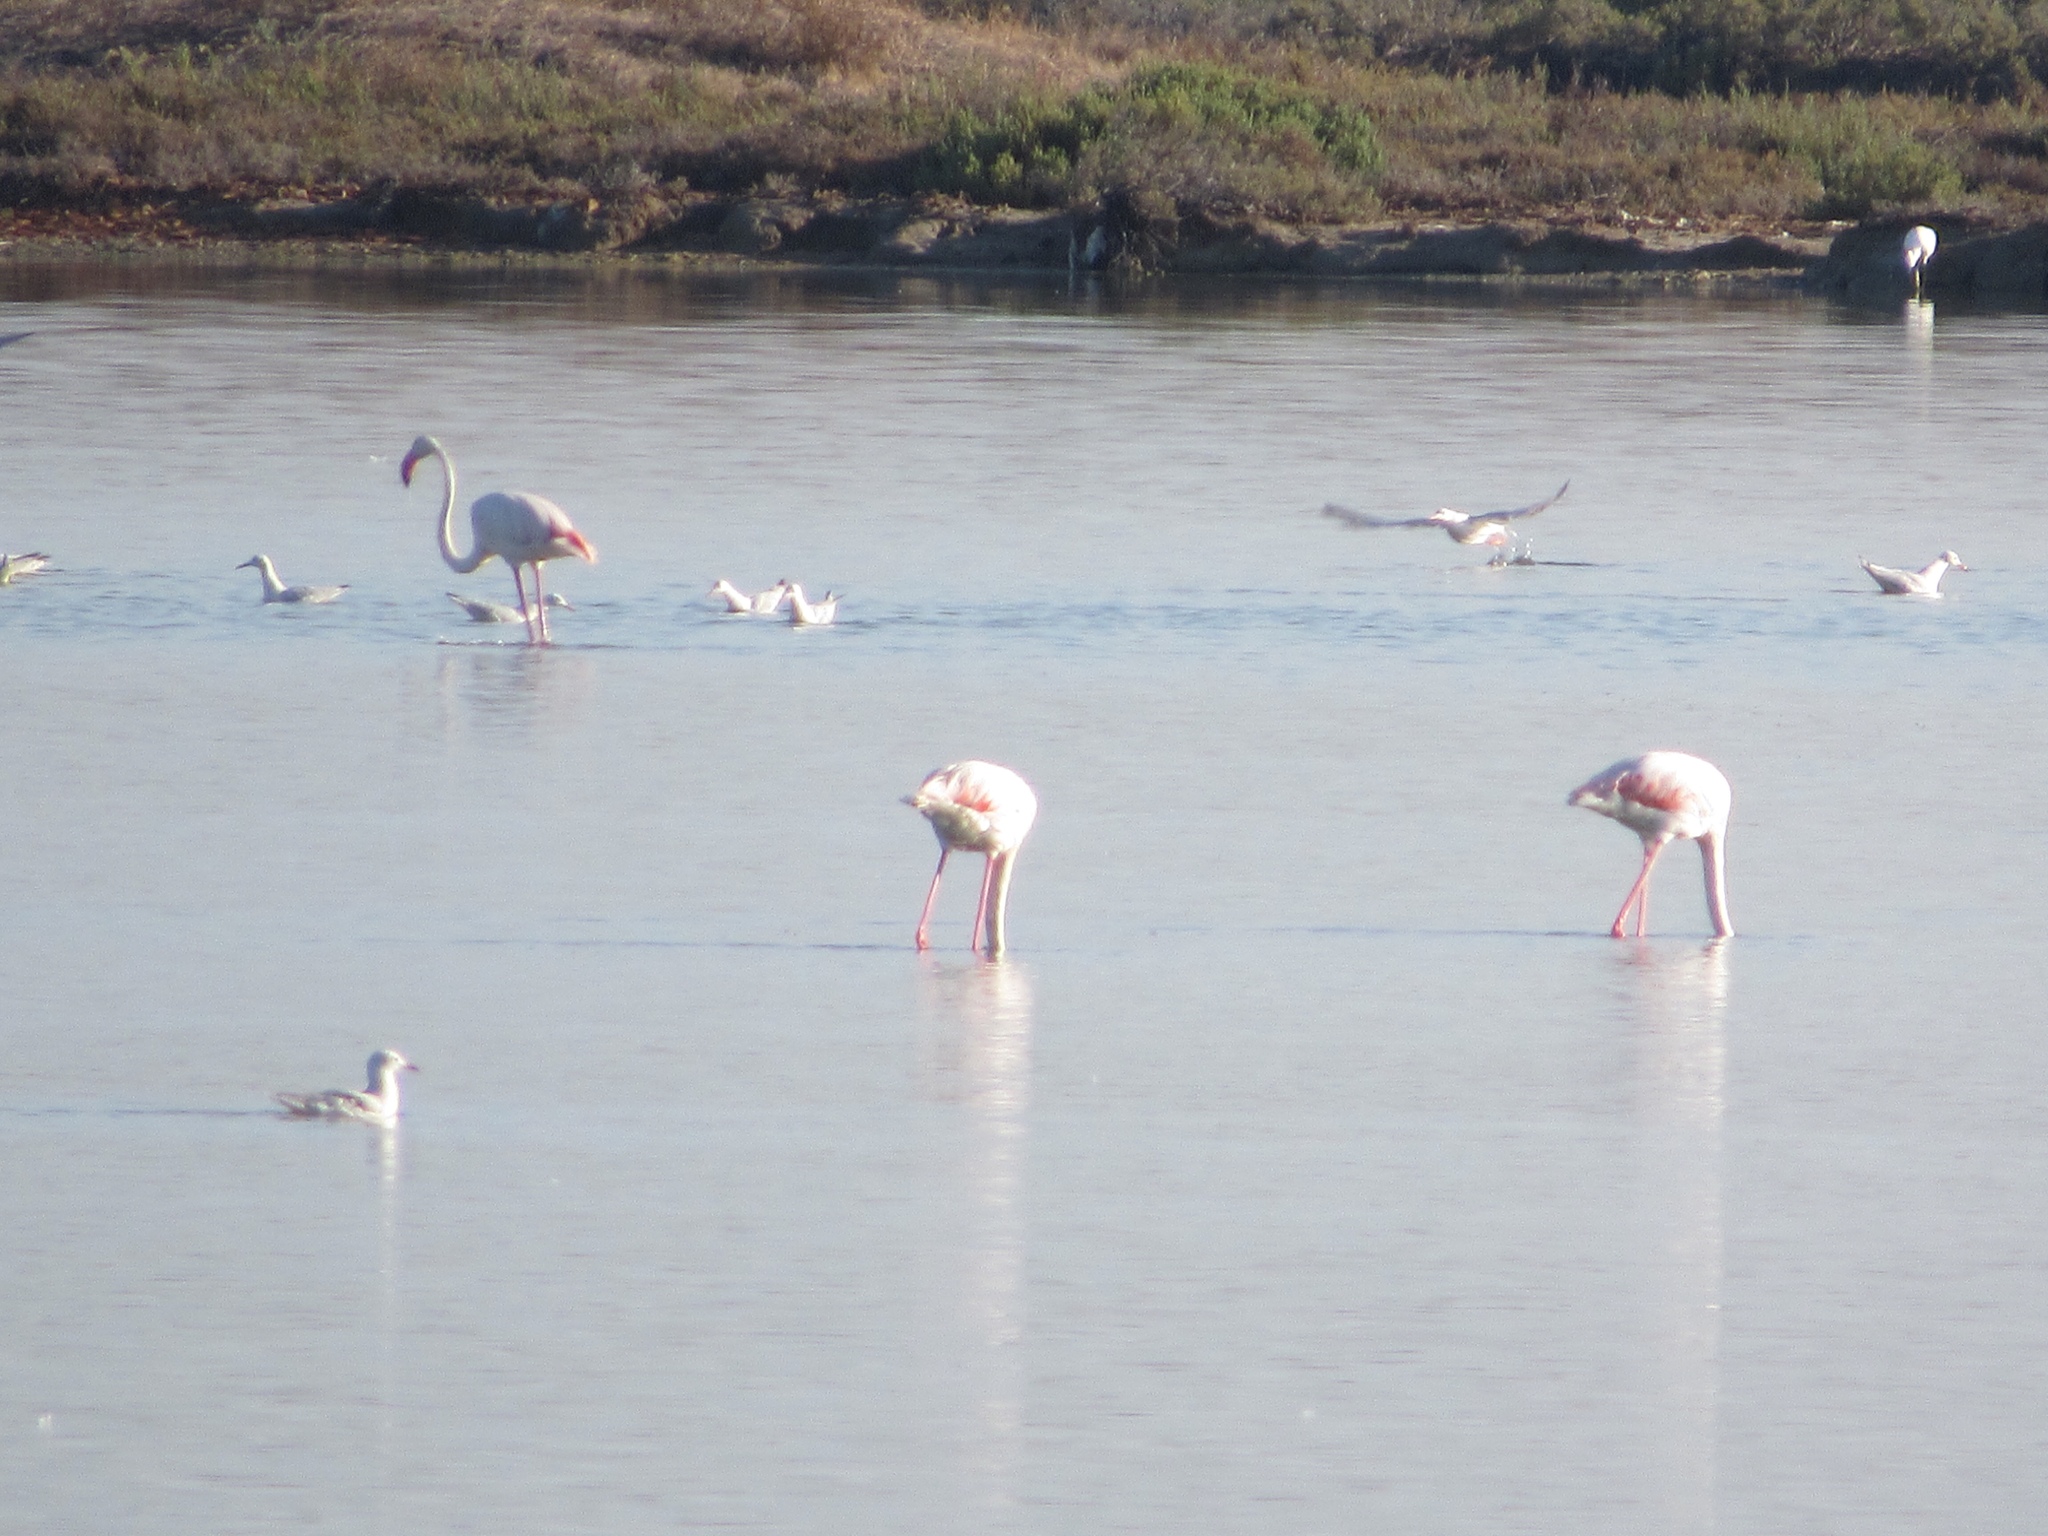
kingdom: Animalia
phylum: Chordata
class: Aves
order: Phoenicopteriformes
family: Phoenicopteridae
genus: Phoenicopterus
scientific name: Phoenicopterus roseus
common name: Greater flamingo
